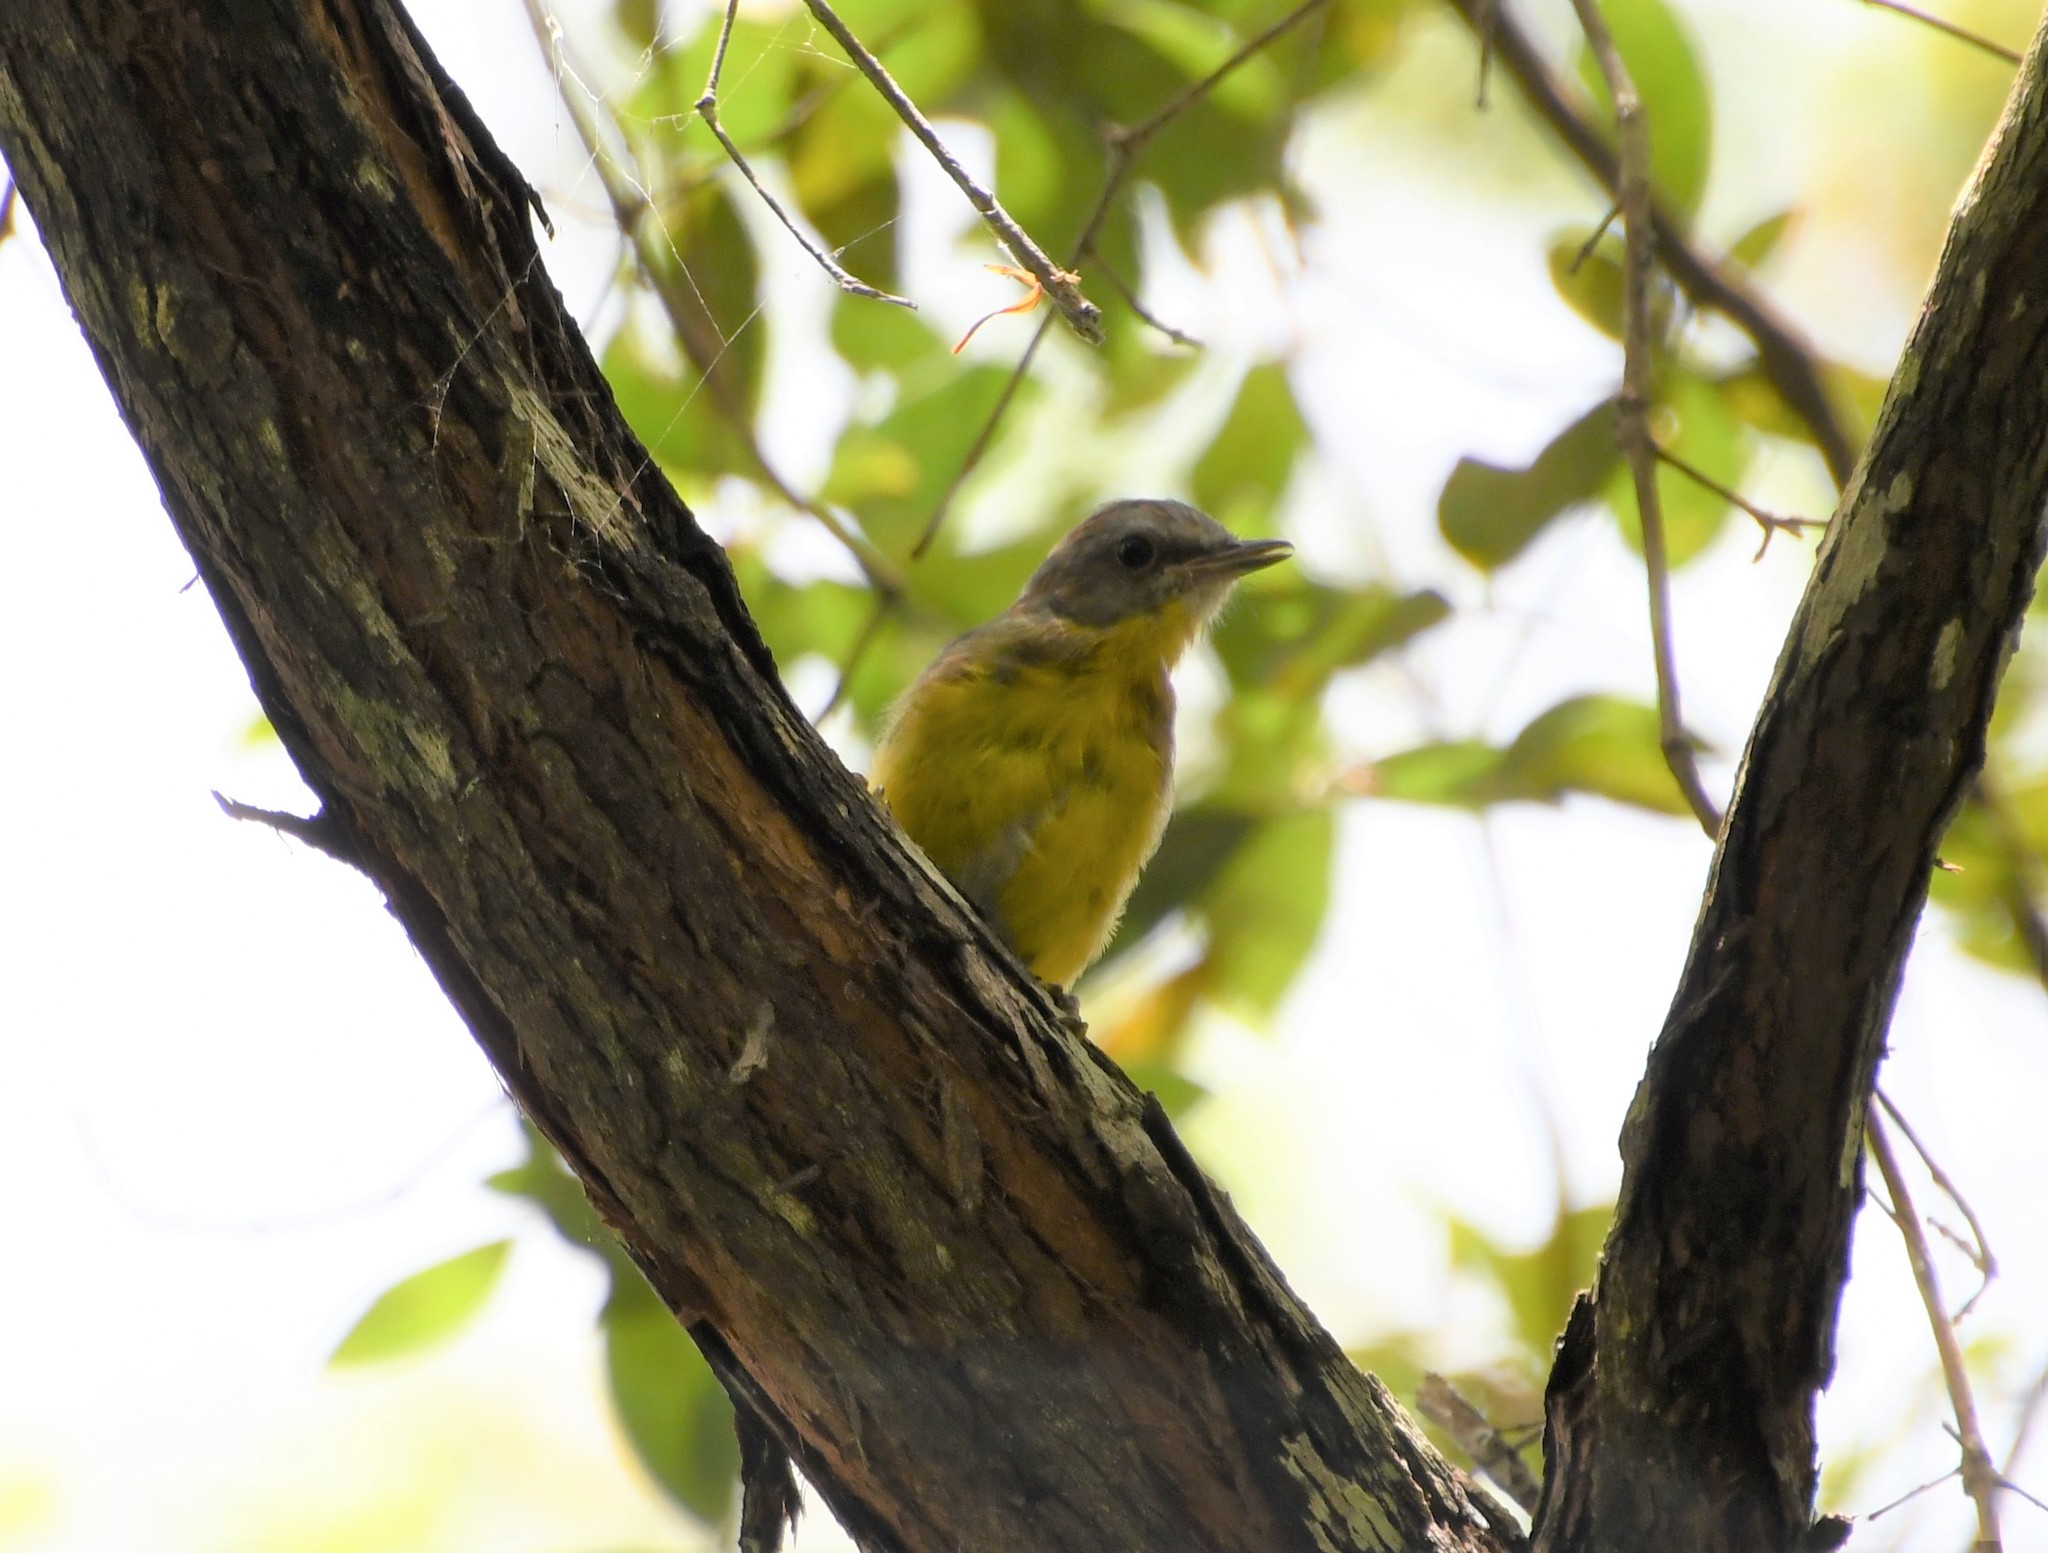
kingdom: Animalia
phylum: Chordata
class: Aves
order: Passeriformes
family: Petroicidae
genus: Eopsaltria
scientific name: Eopsaltria australis
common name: Eastern yellow robin
